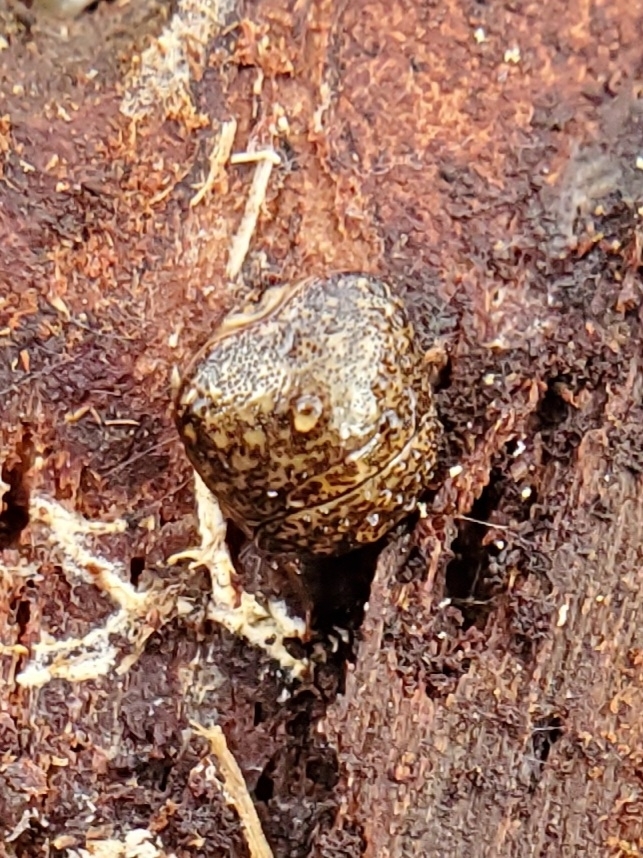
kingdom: Animalia
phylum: Arthropoda
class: Insecta
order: Hemiptera
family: Plataspidae
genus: Megacopta
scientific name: Megacopta cribraria
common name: Bean plataspid
